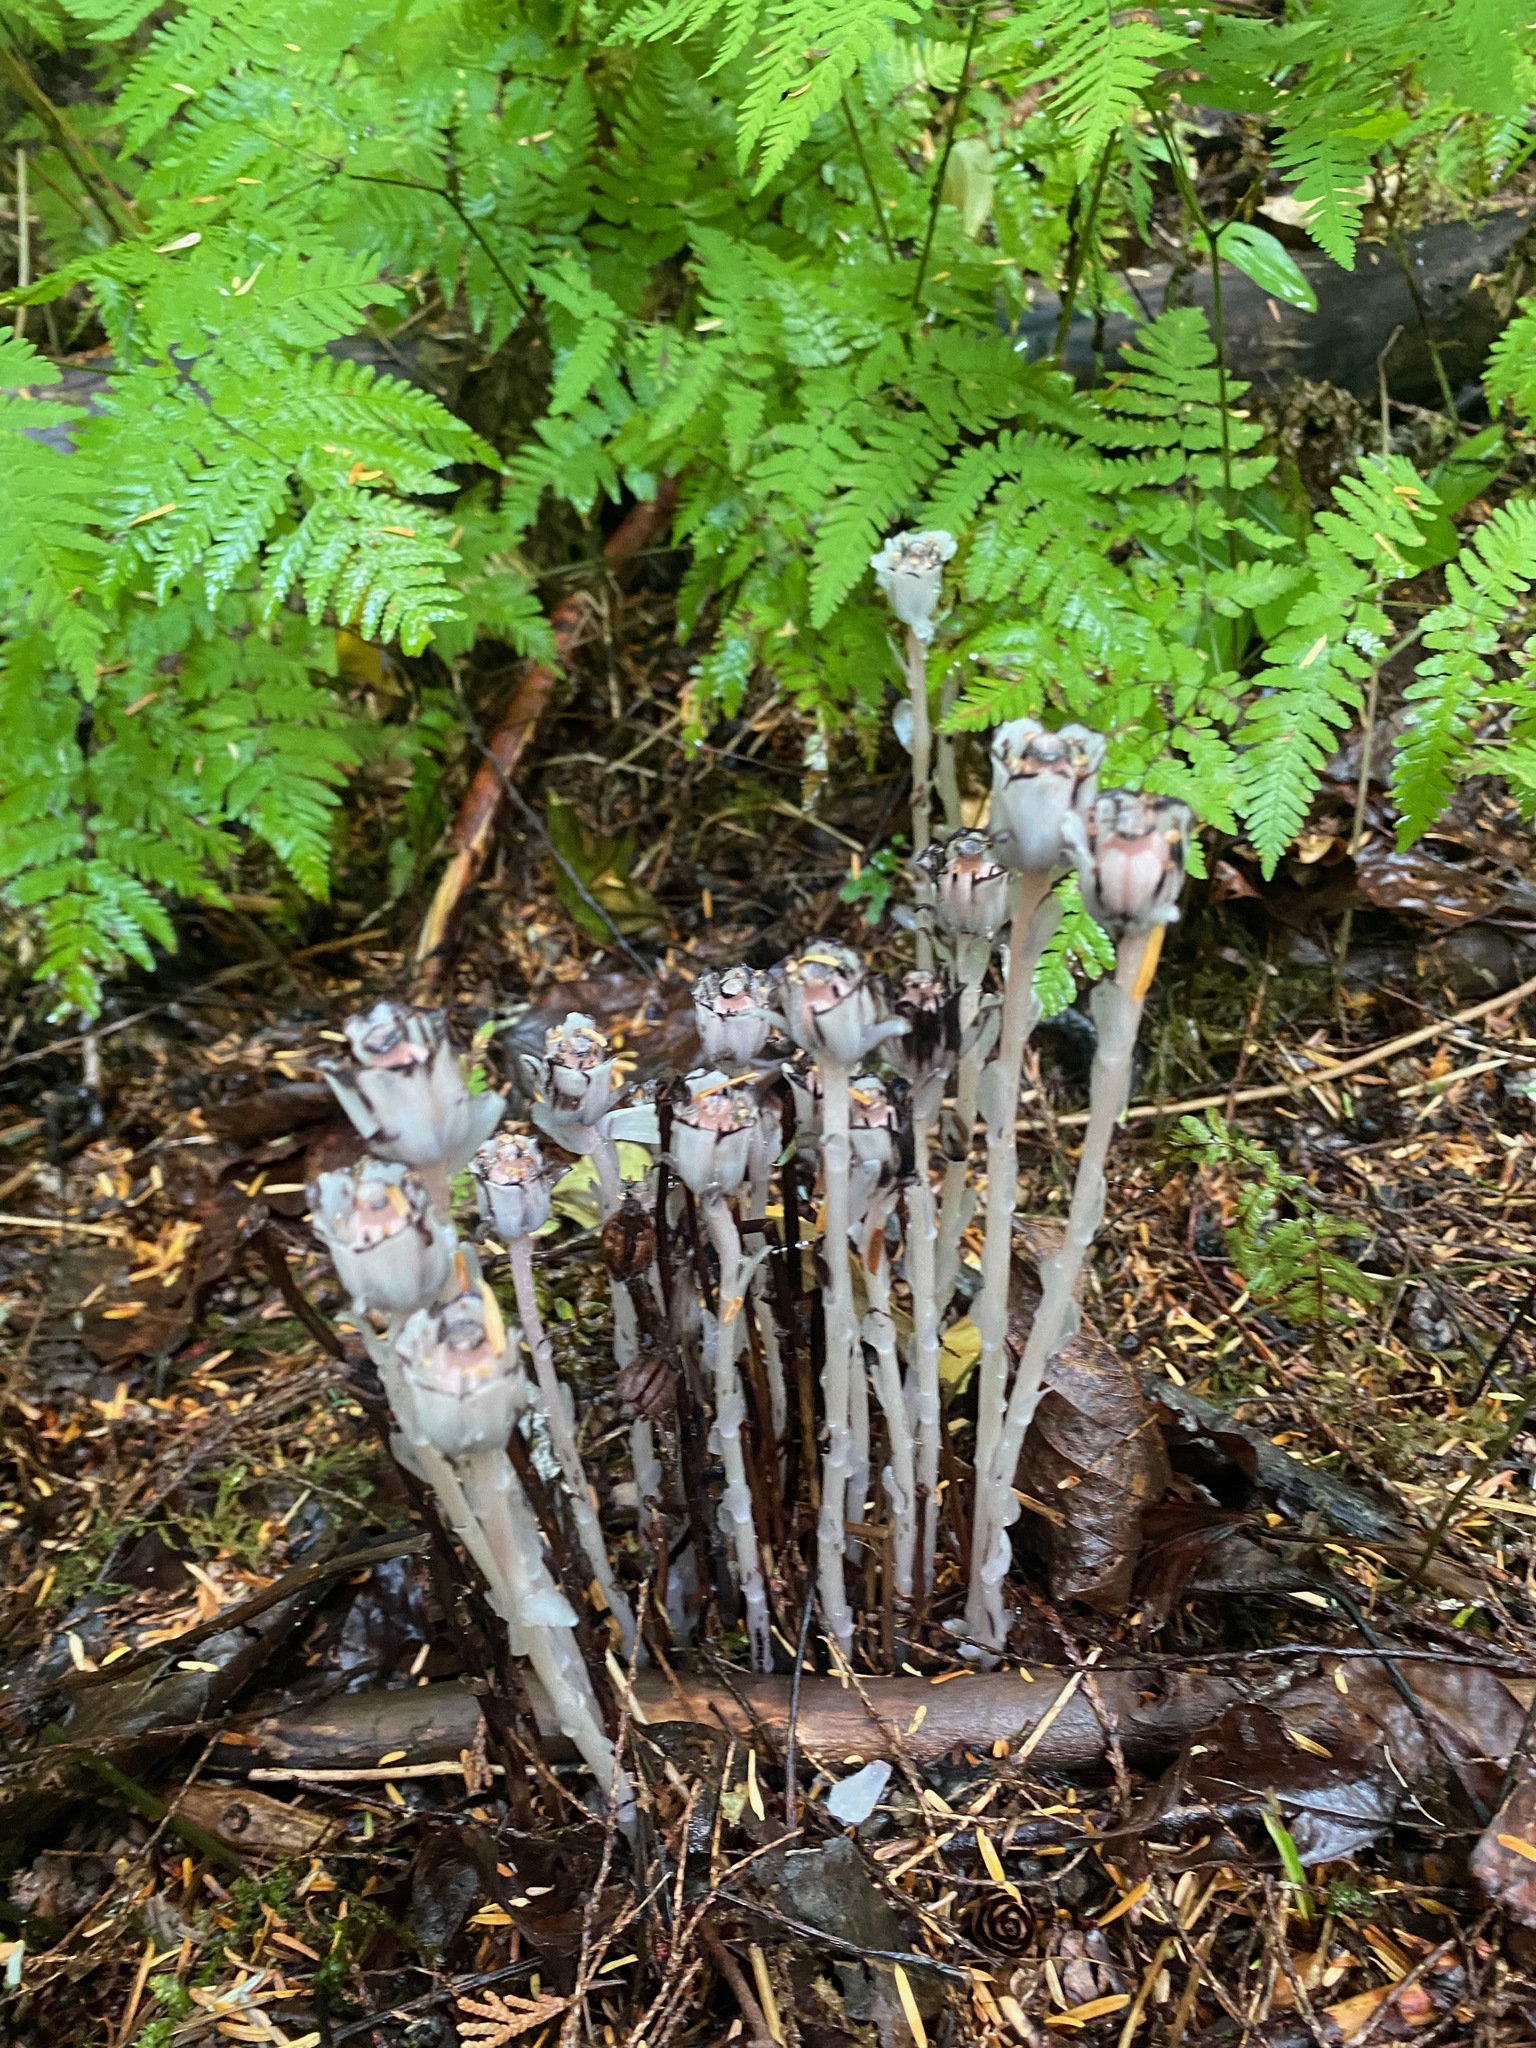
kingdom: Plantae
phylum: Tracheophyta
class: Magnoliopsida
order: Ericales
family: Ericaceae
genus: Monotropa
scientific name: Monotropa uniflora
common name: Convulsion root
